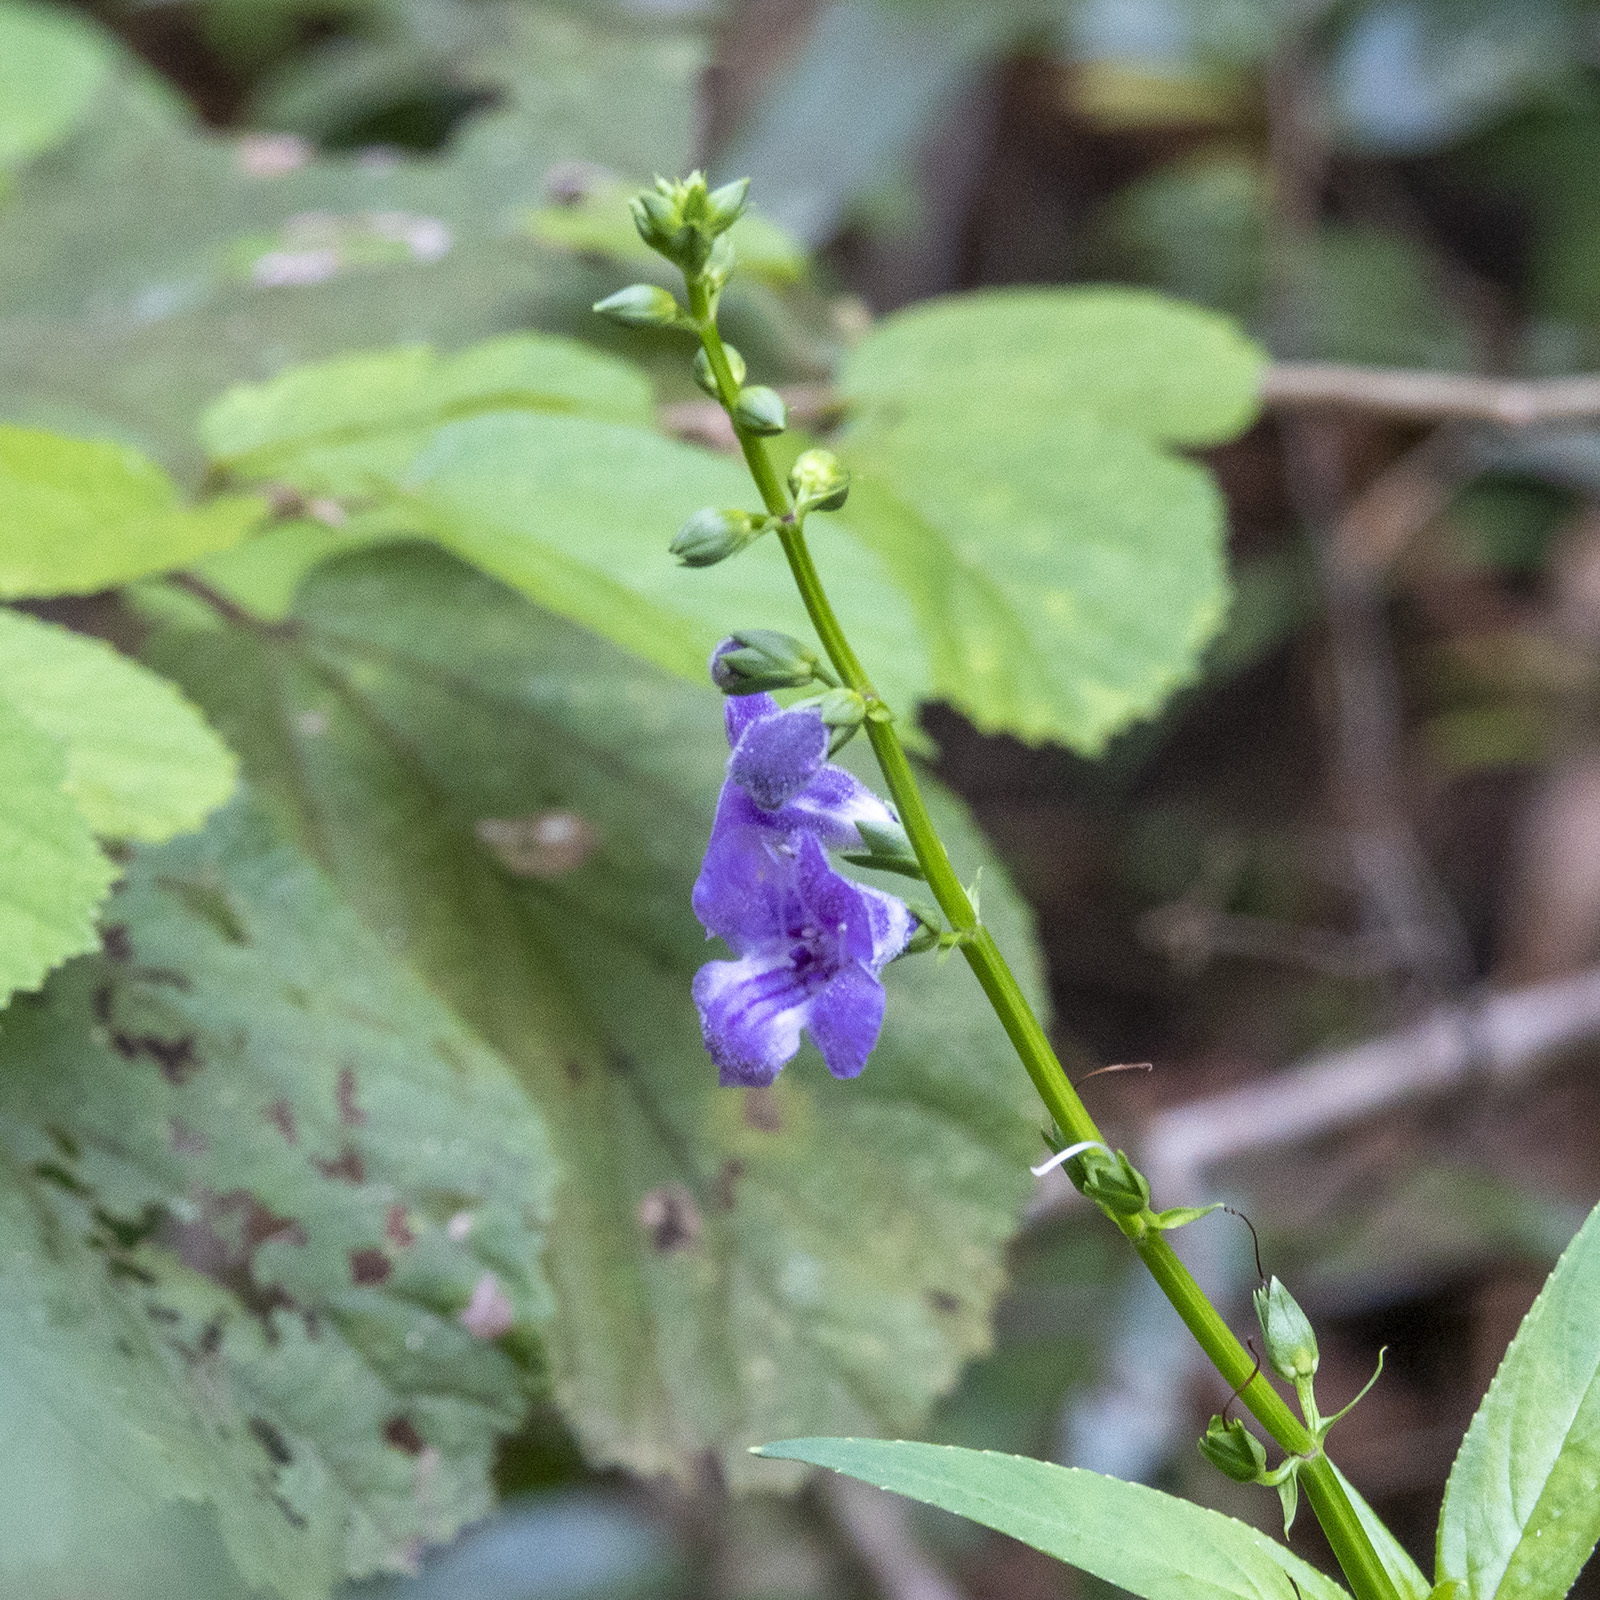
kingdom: Plantae
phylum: Tracheophyta
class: Magnoliopsida
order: Lamiales
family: Linderniaceae
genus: Artanema
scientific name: Artanema longifolium
